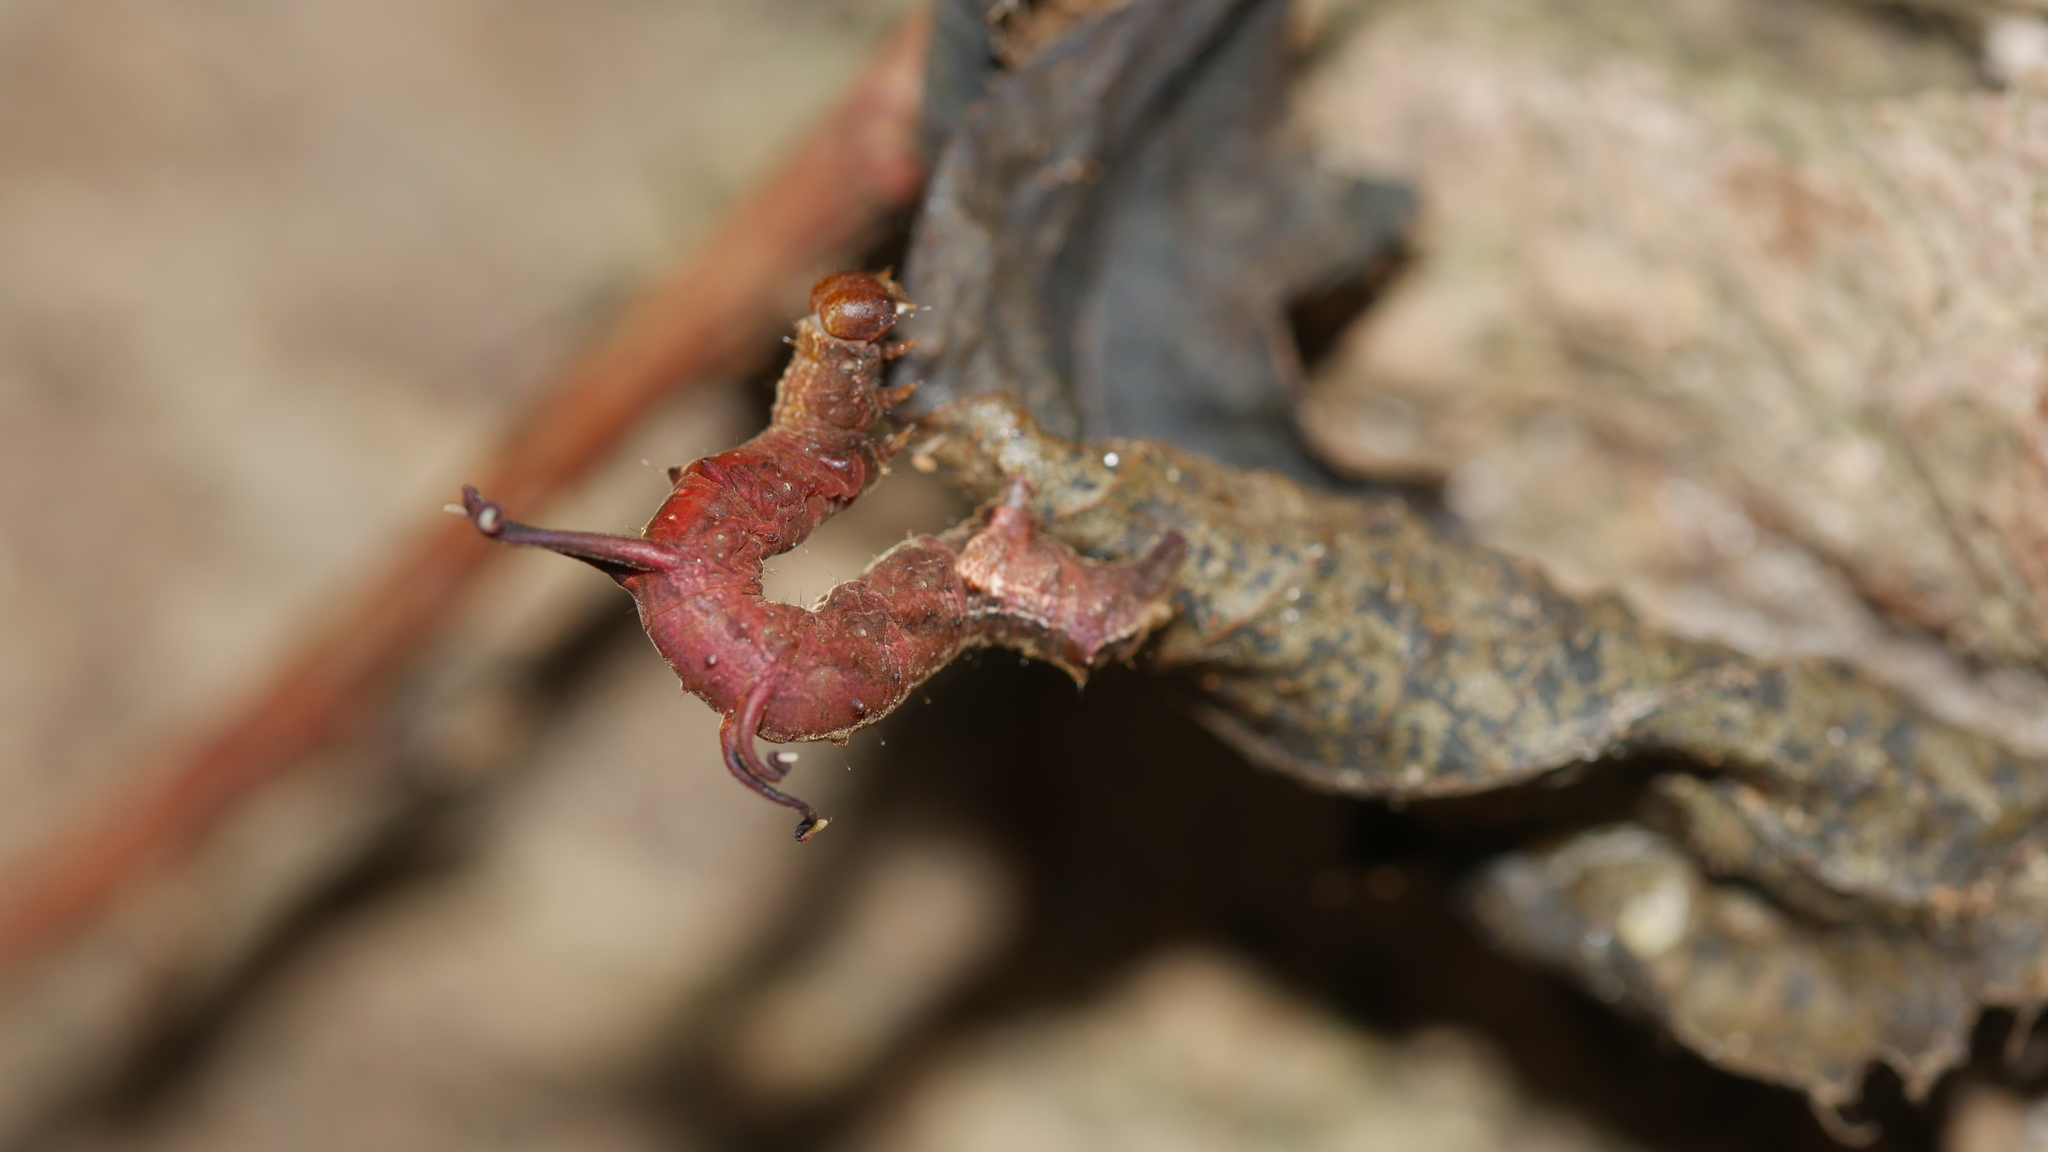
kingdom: Animalia
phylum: Arthropoda
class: Insecta
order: Lepidoptera
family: Geometridae
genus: Nematocampa
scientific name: Nematocampa resistaria
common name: Horned spanworm moth
